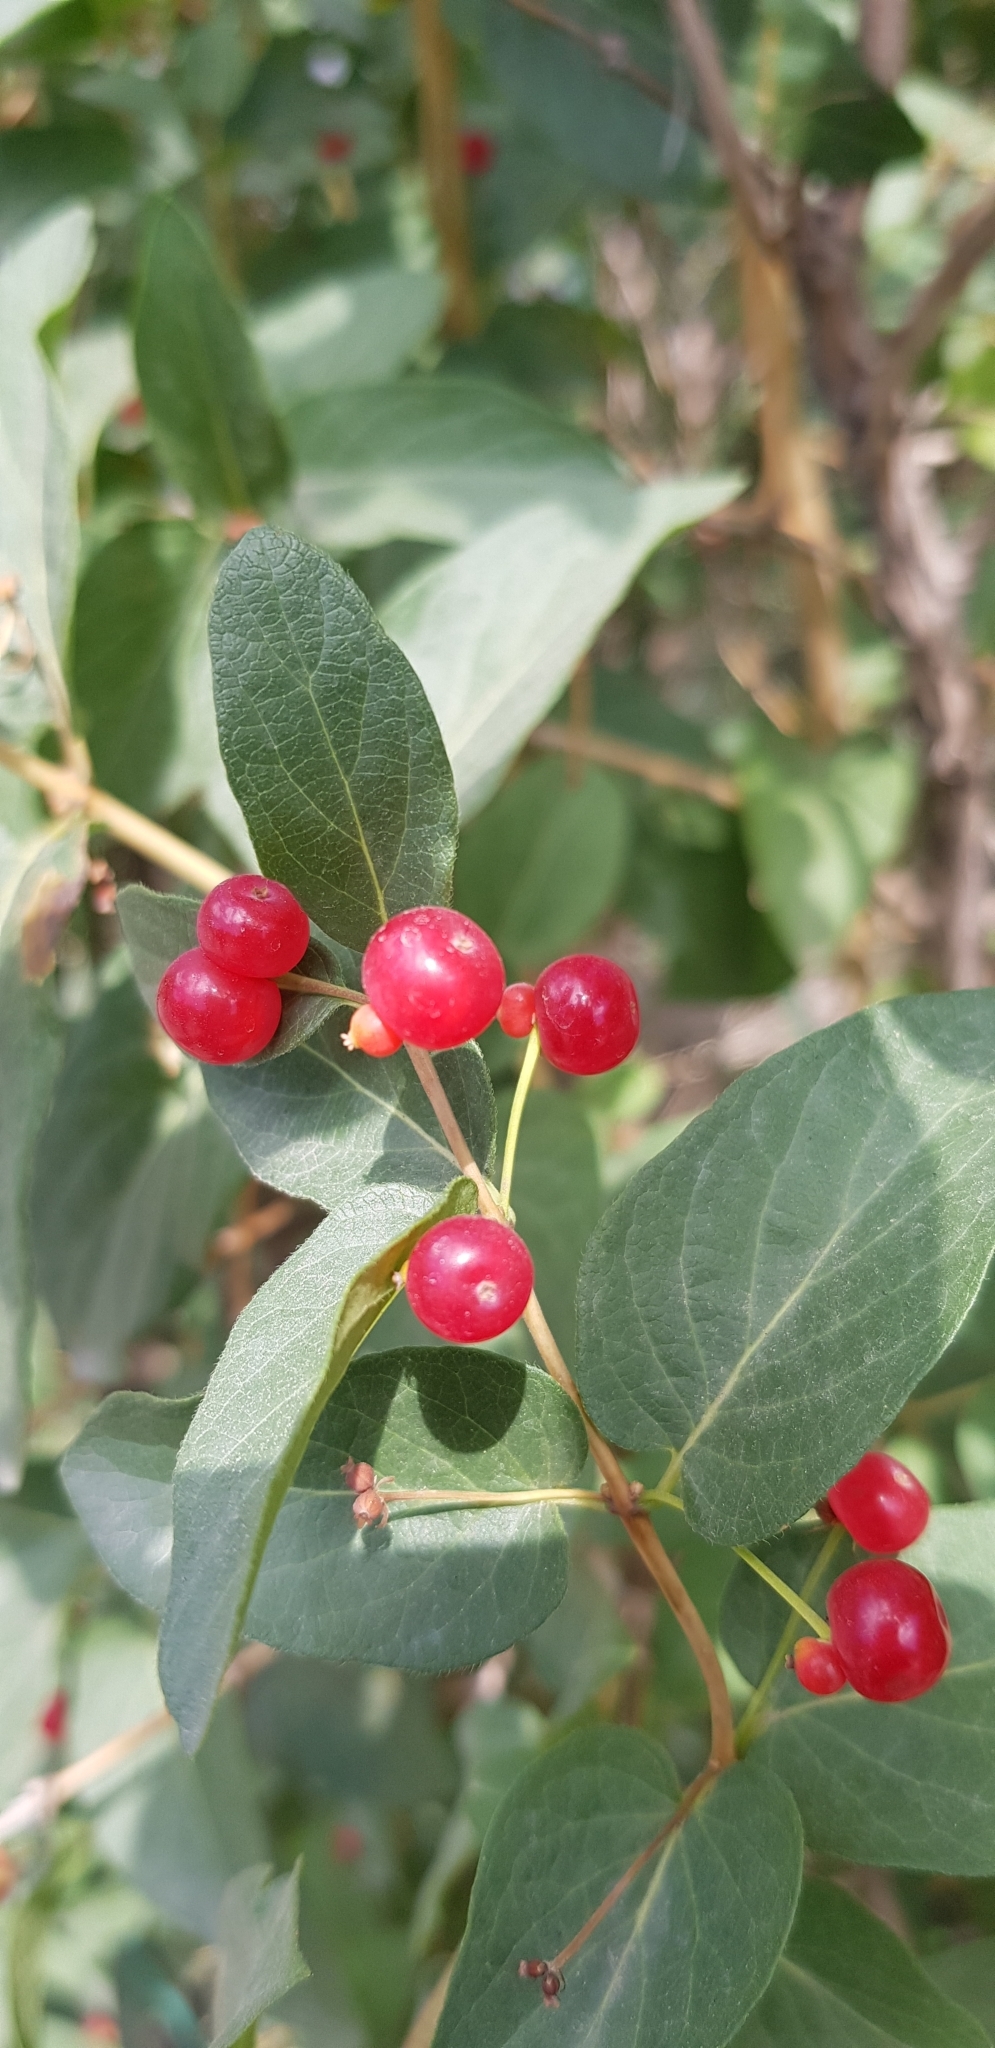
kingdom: Plantae
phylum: Tracheophyta
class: Magnoliopsida
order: Dipsacales
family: Caprifoliaceae
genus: Lonicera
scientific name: Lonicera tatarica
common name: Tatarian honeysuckle
